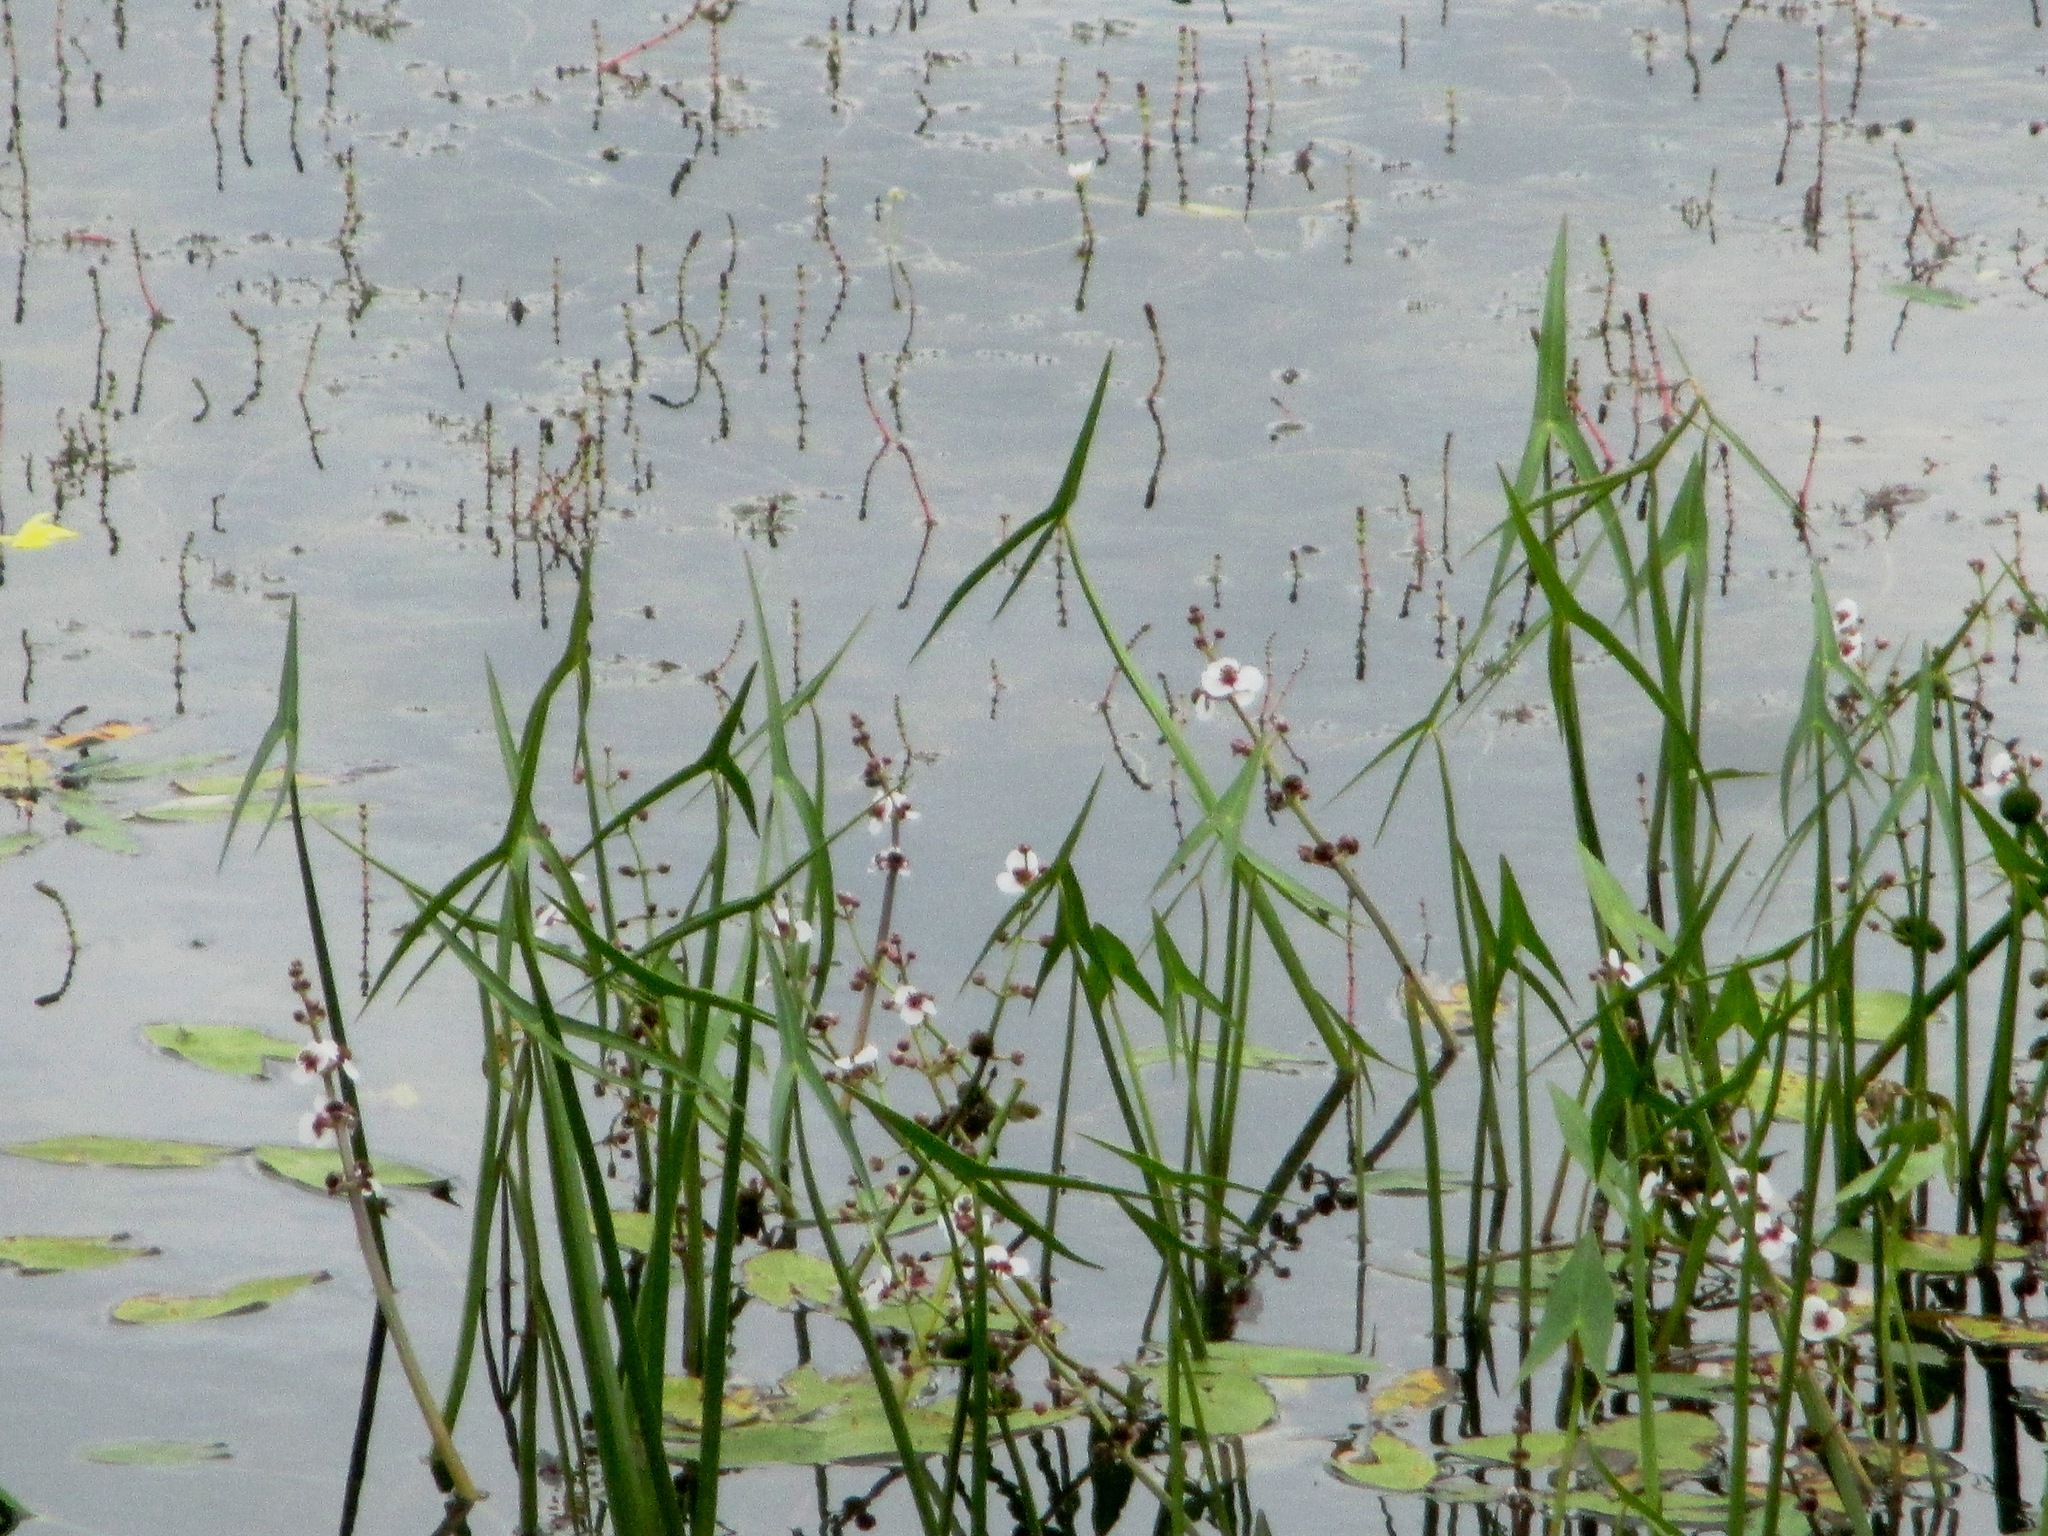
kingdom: Plantae
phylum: Tracheophyta
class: Liliopsida
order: Alismatales
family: Alismataceae
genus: Sagittaria
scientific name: Sagittaria sagittifolia
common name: Arrowhead
